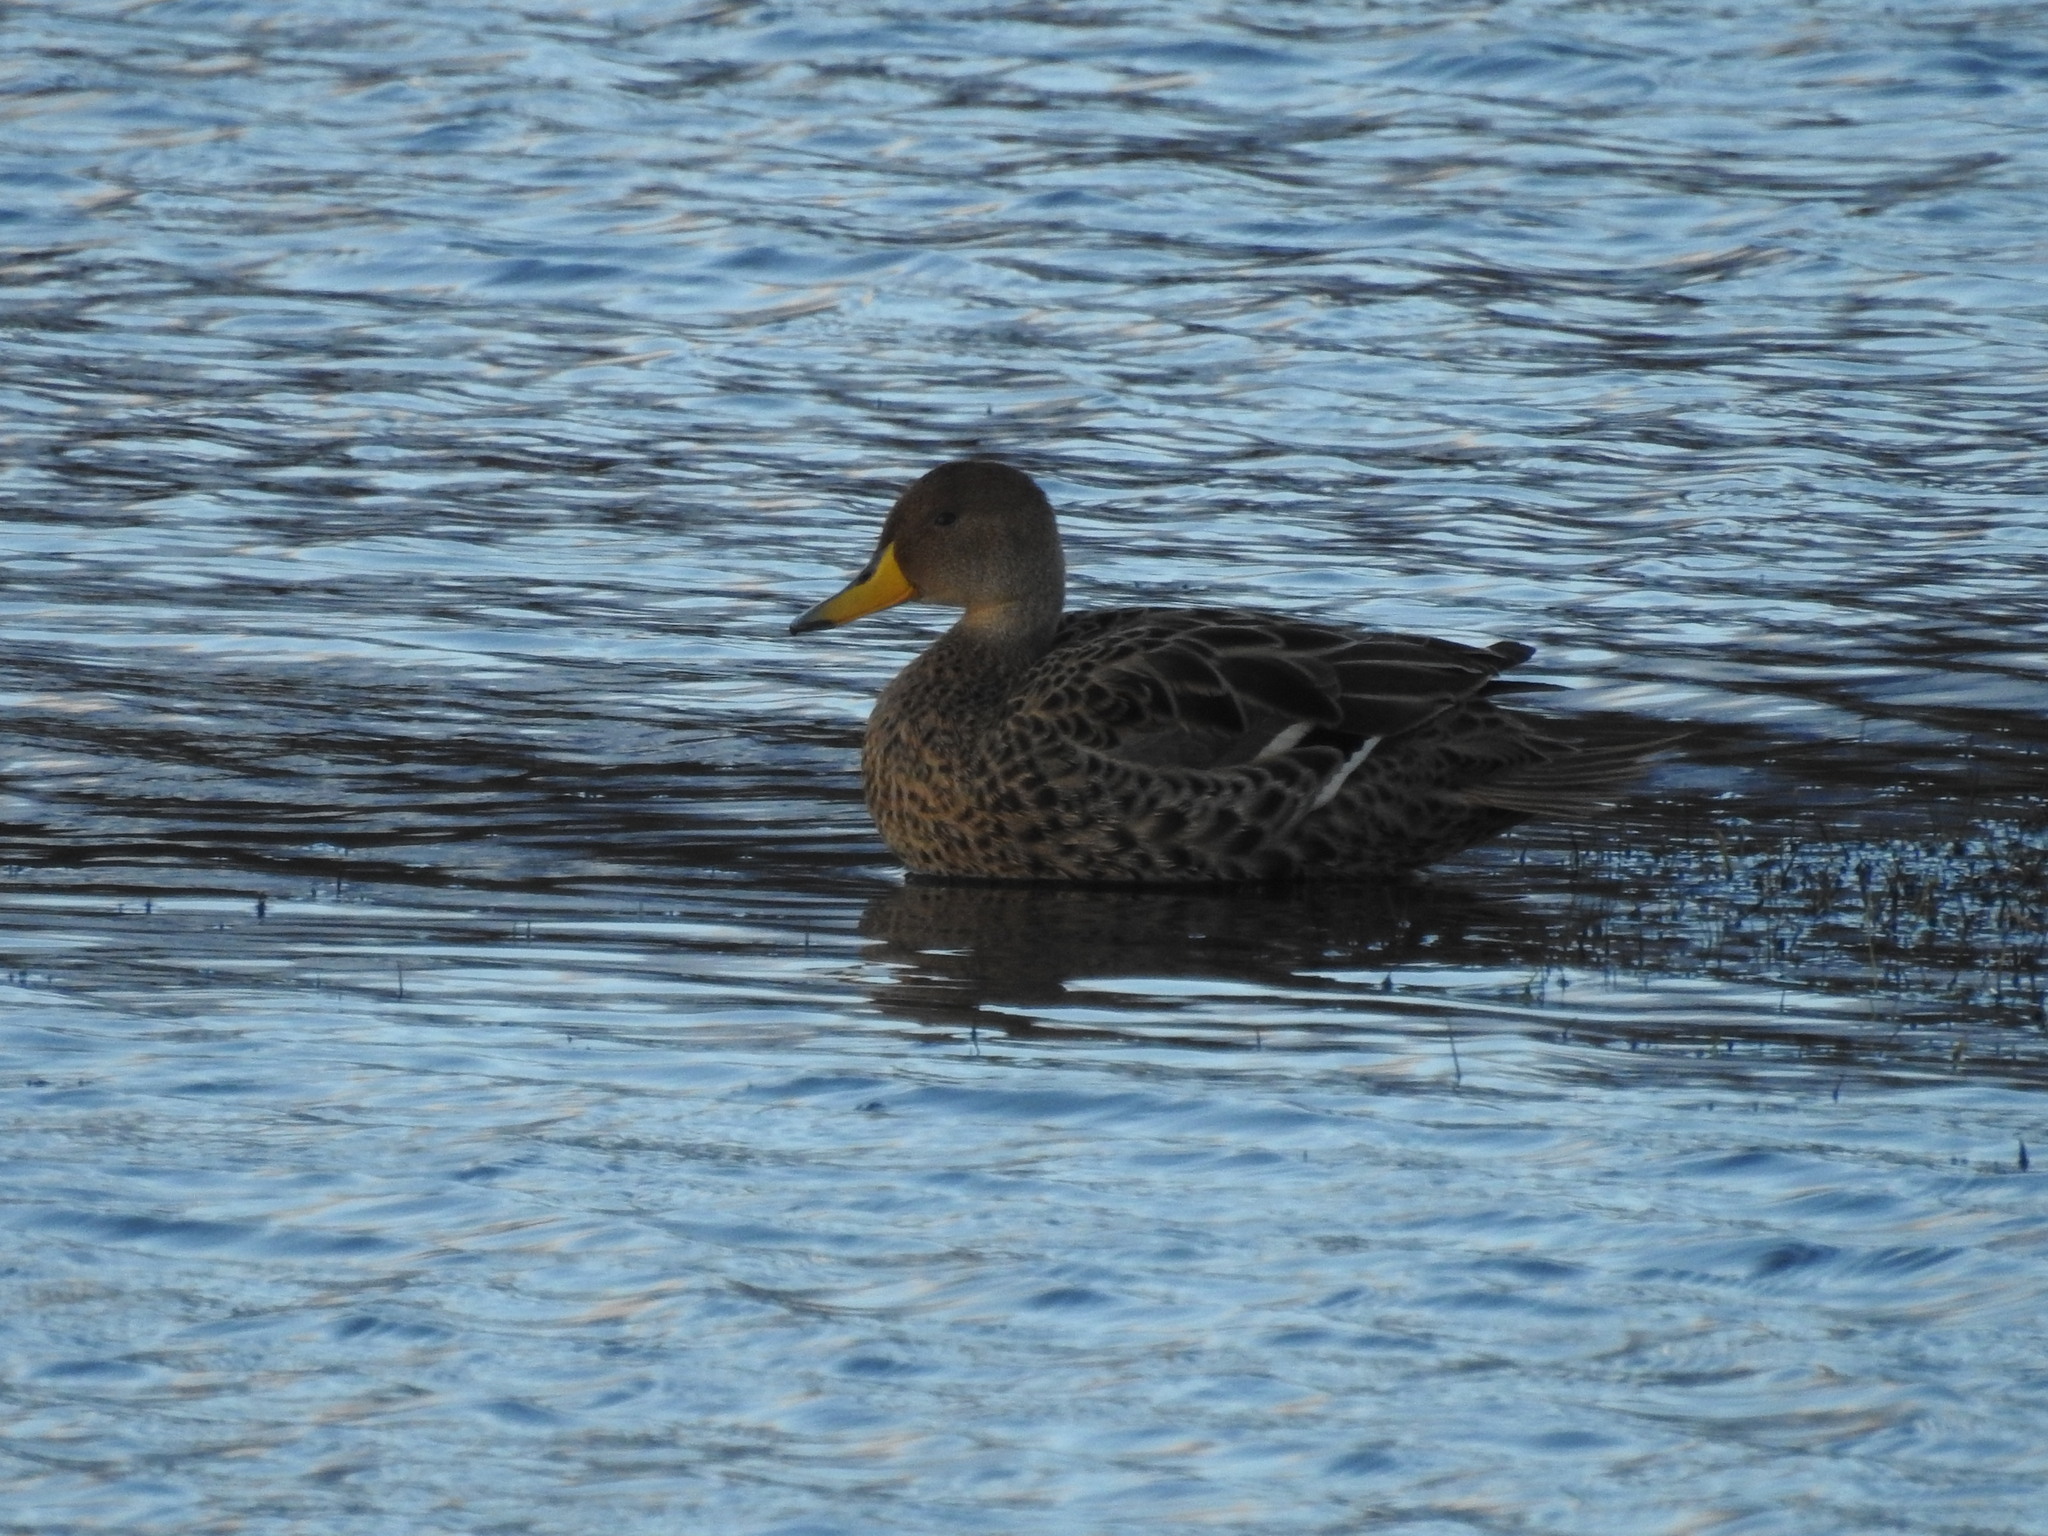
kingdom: Animalia
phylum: Chordata
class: Aves
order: Anseriformes
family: Anatidae
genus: Anas
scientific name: Anas georgica
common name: Yellow-billed pintail
